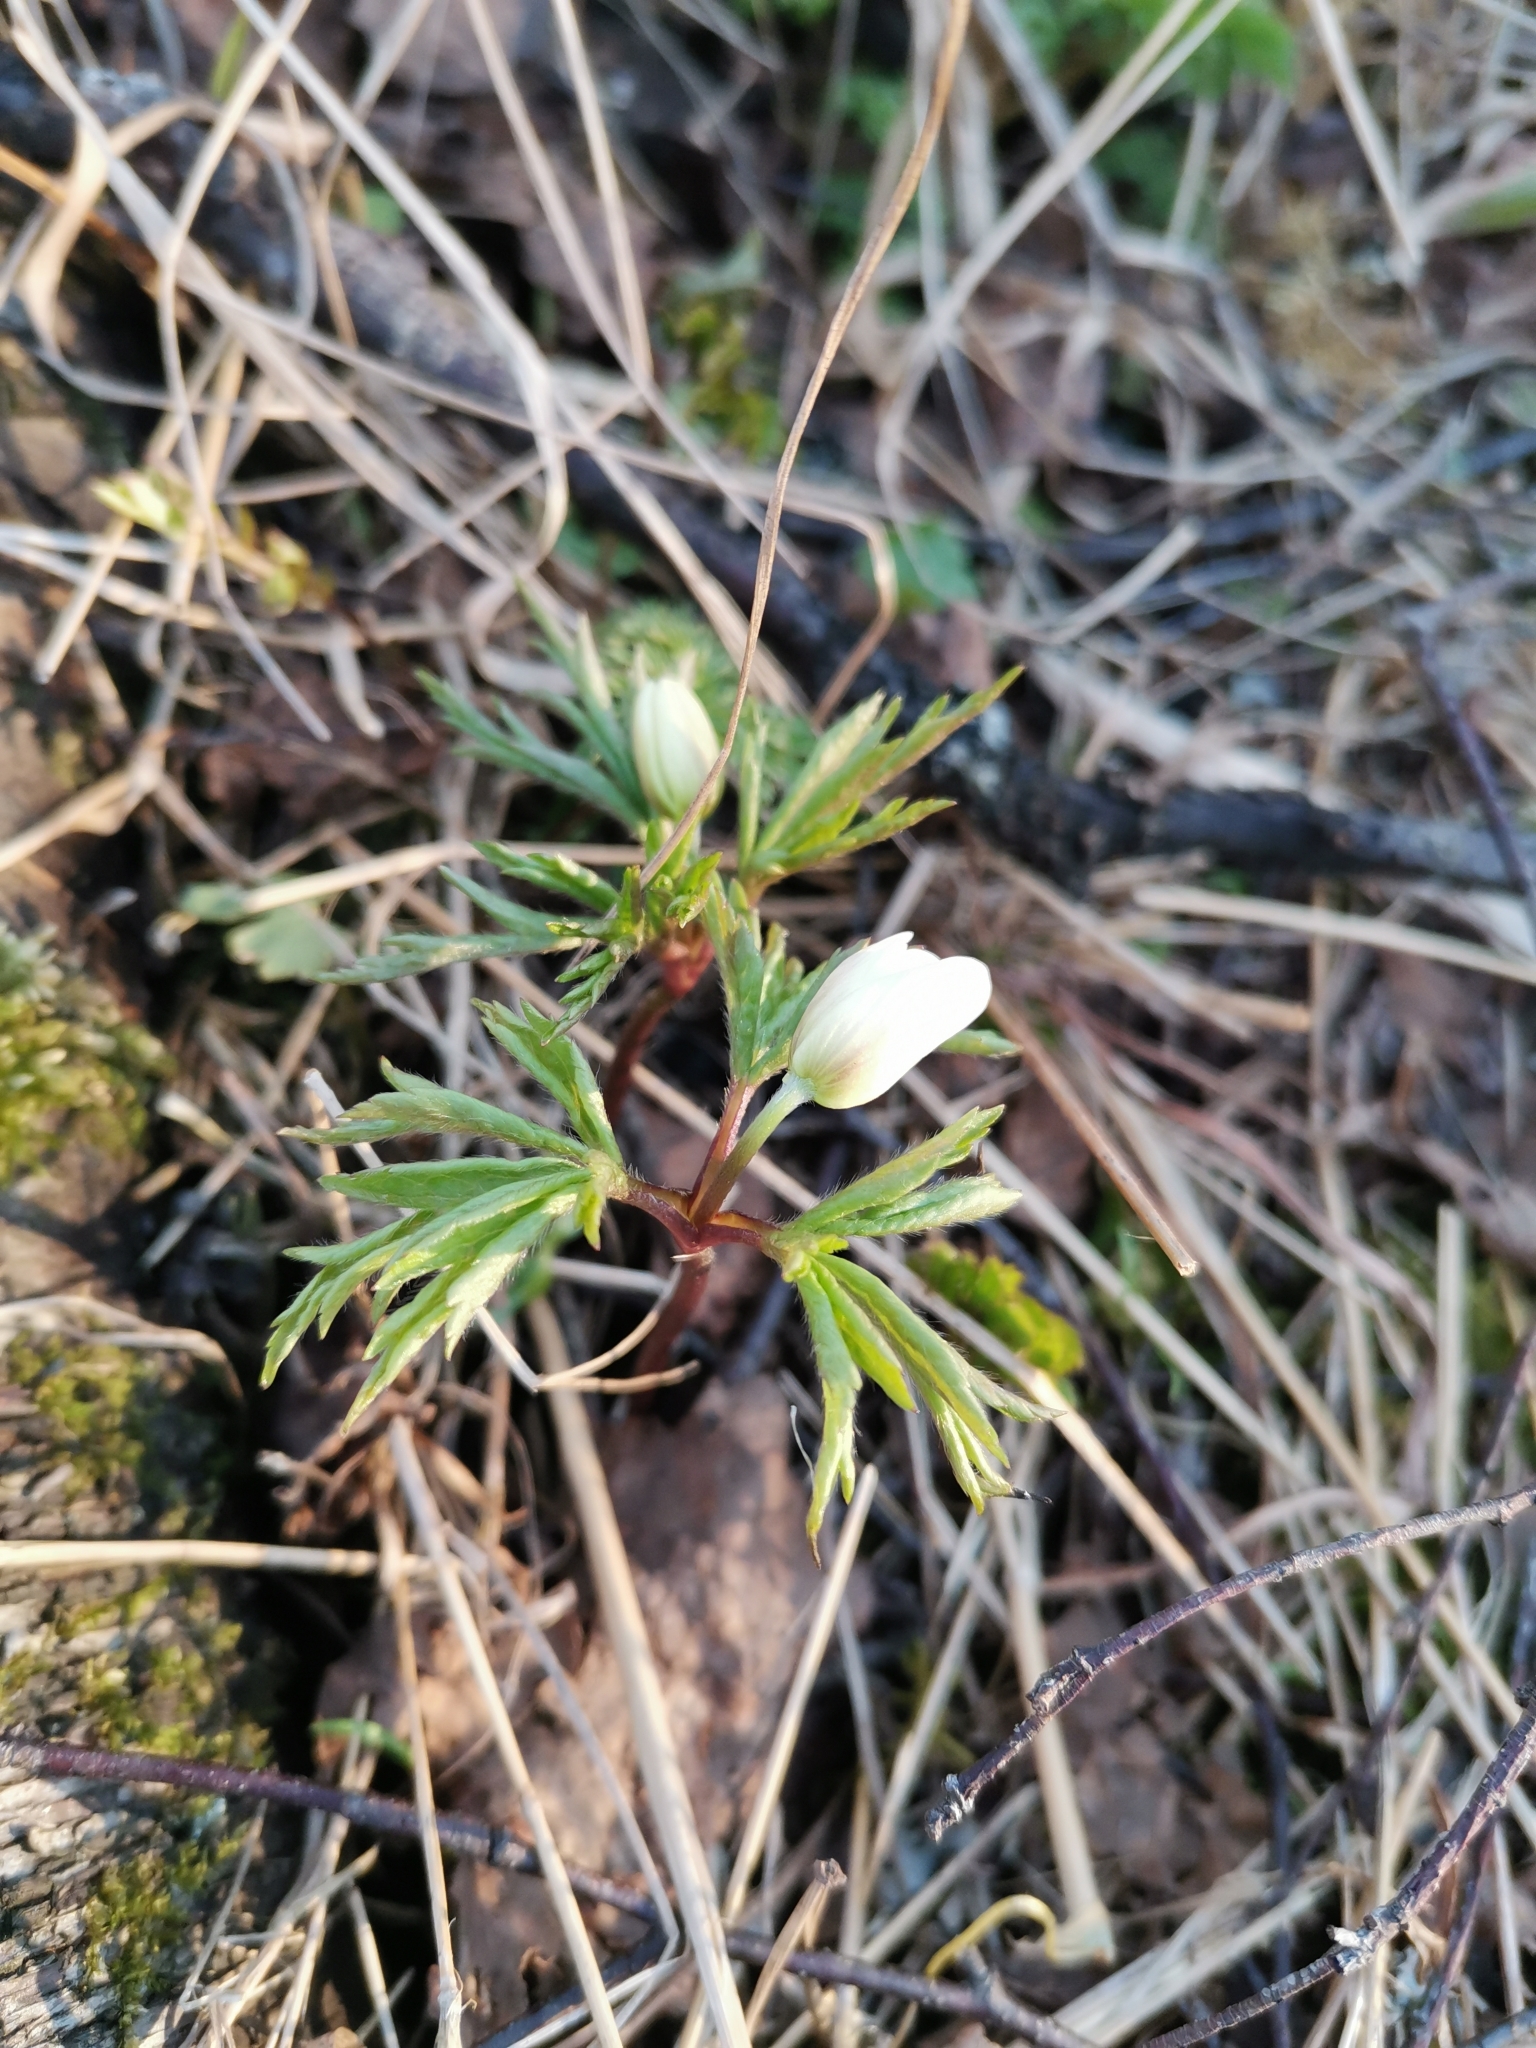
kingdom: Plantae
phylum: Tracheophyta
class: Magnoliopsida
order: Ranunculales
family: Ranunculaceae
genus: Anemone
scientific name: Anemone nemorosa
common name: Wood anemone
